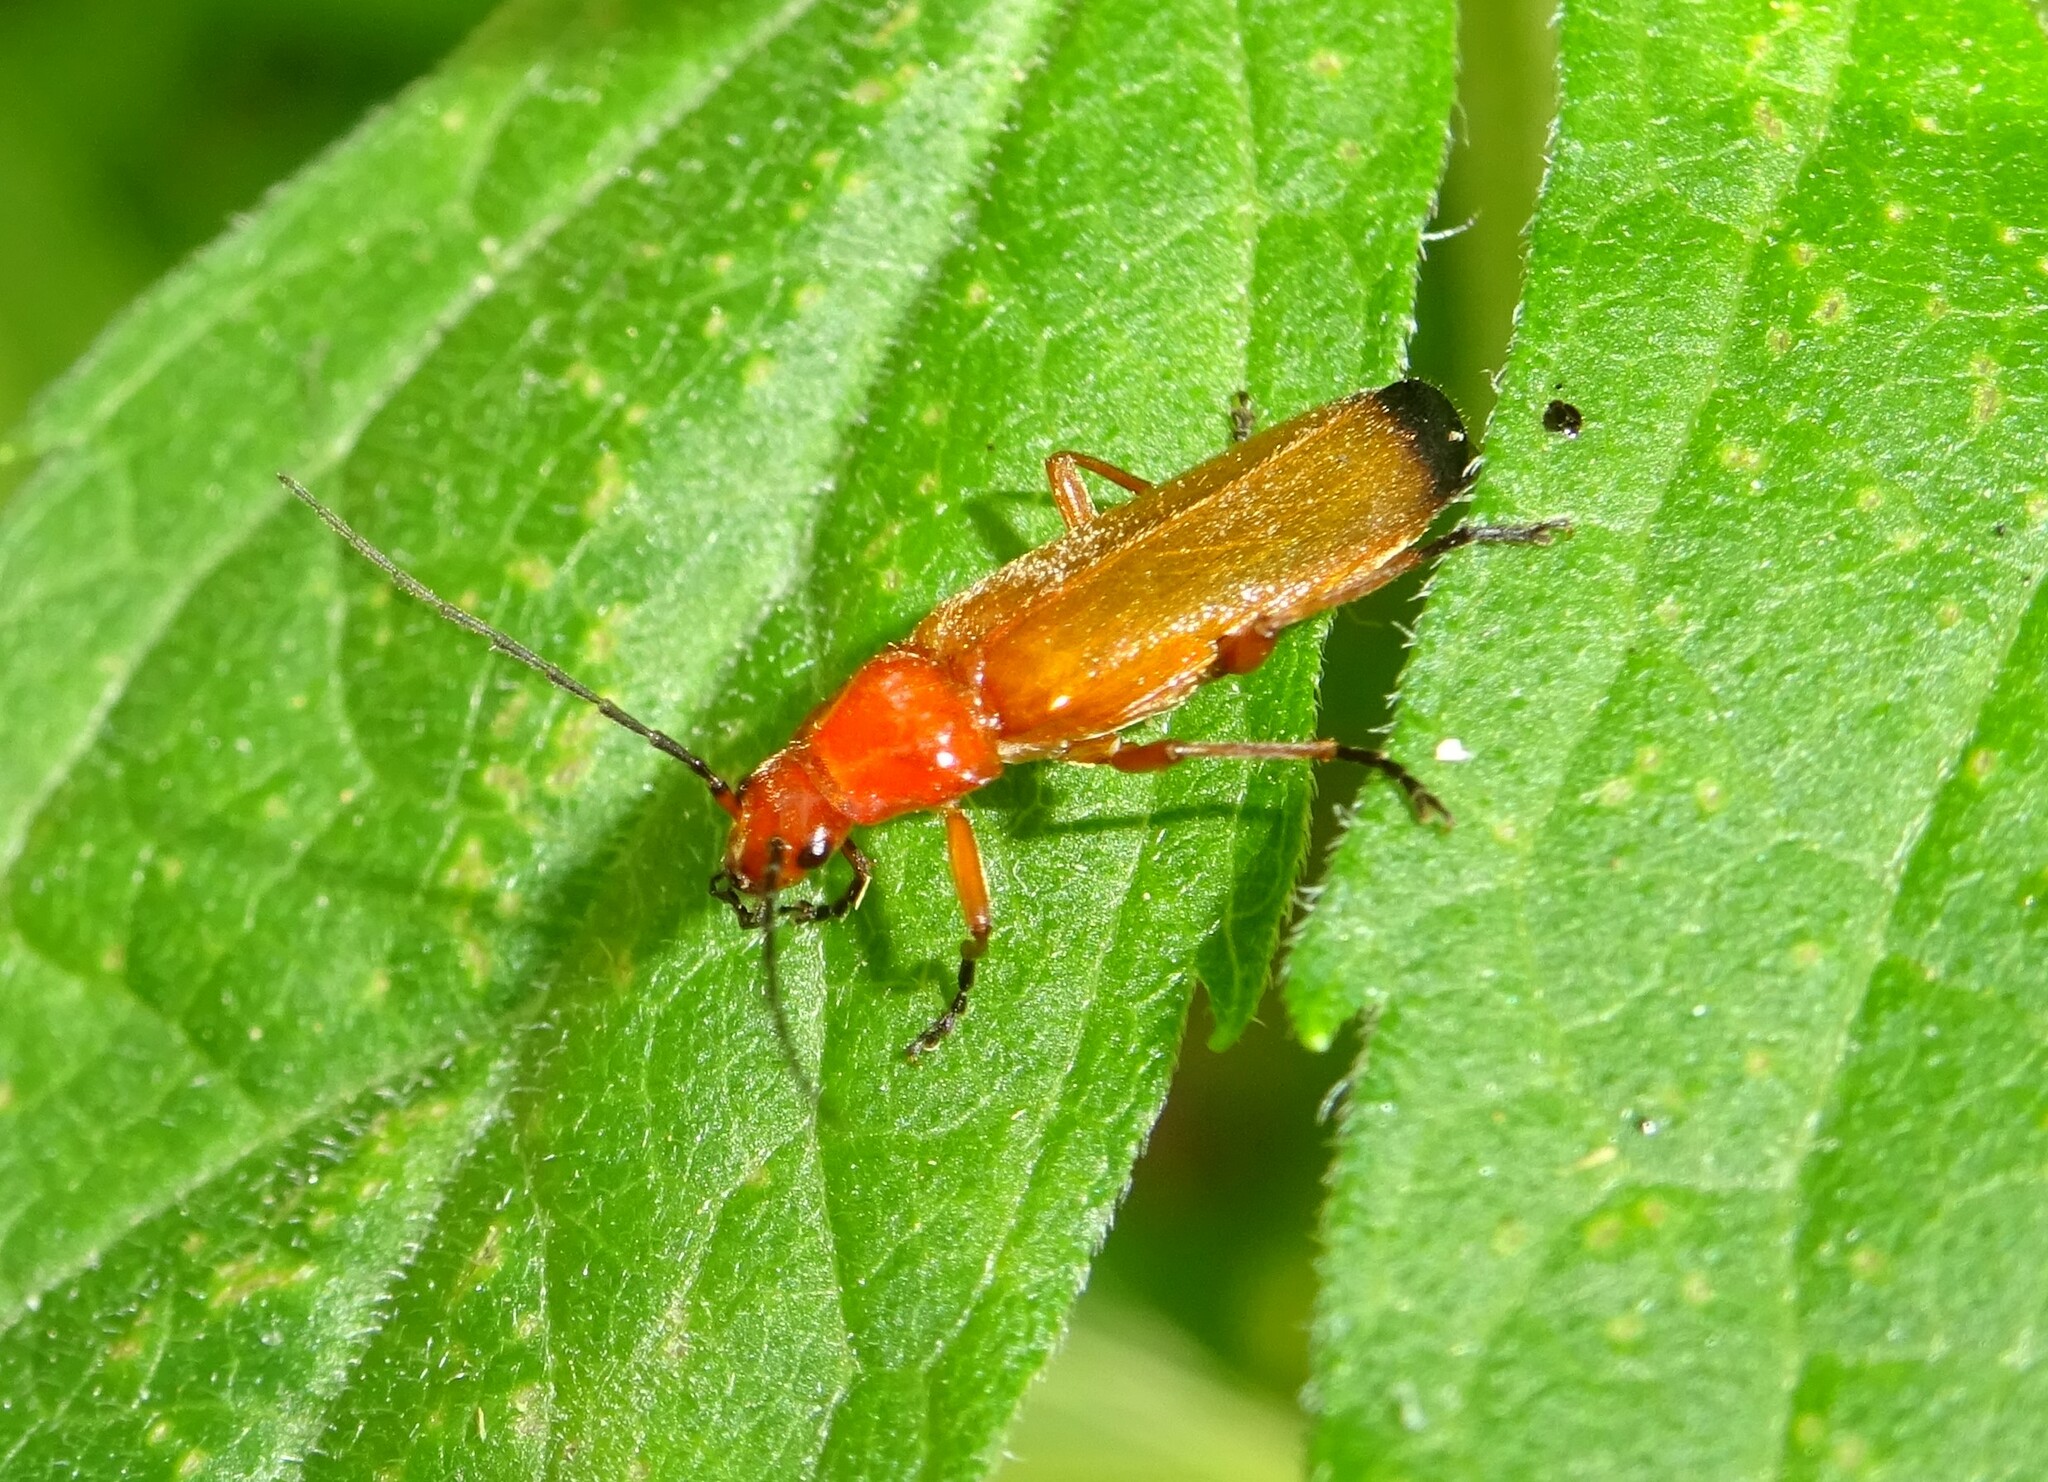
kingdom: Animalia
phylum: Arthropoda
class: Insecta
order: Coleoptera
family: Cantharidae
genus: Rhagonycha
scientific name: Rhagonycha fulva
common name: Common red soldier beetle
